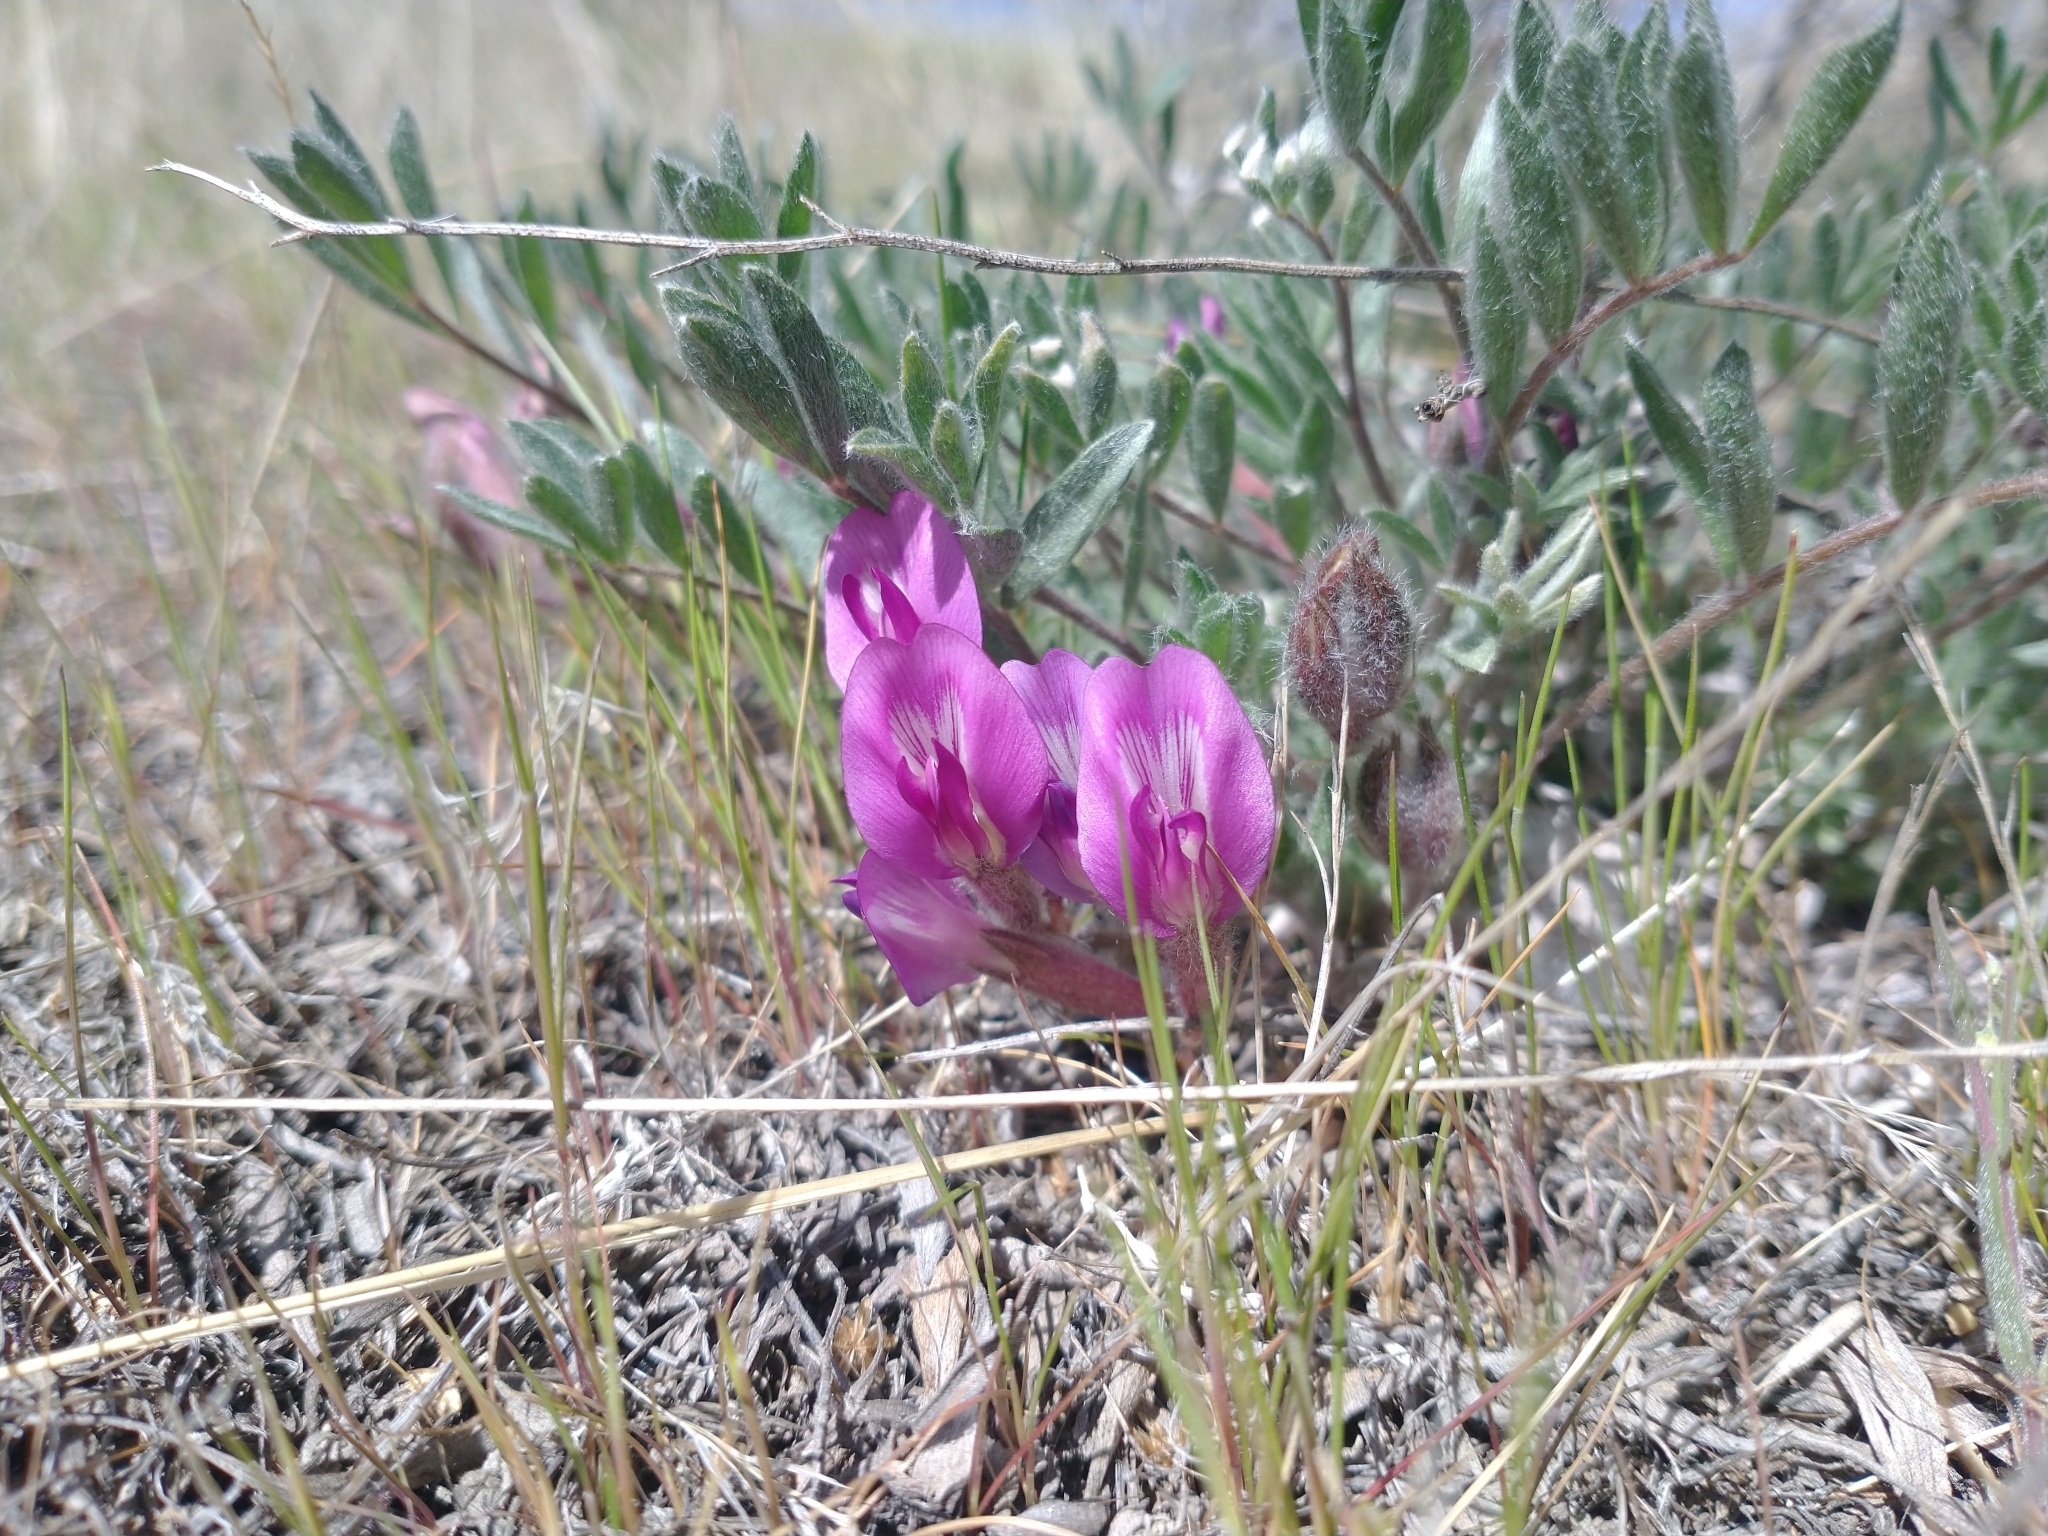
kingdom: Plantae
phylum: Tracheophyta
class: Magnoliopsida
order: Fabales
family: Fabaceae
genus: Astragalus
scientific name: Astragalus purshii
